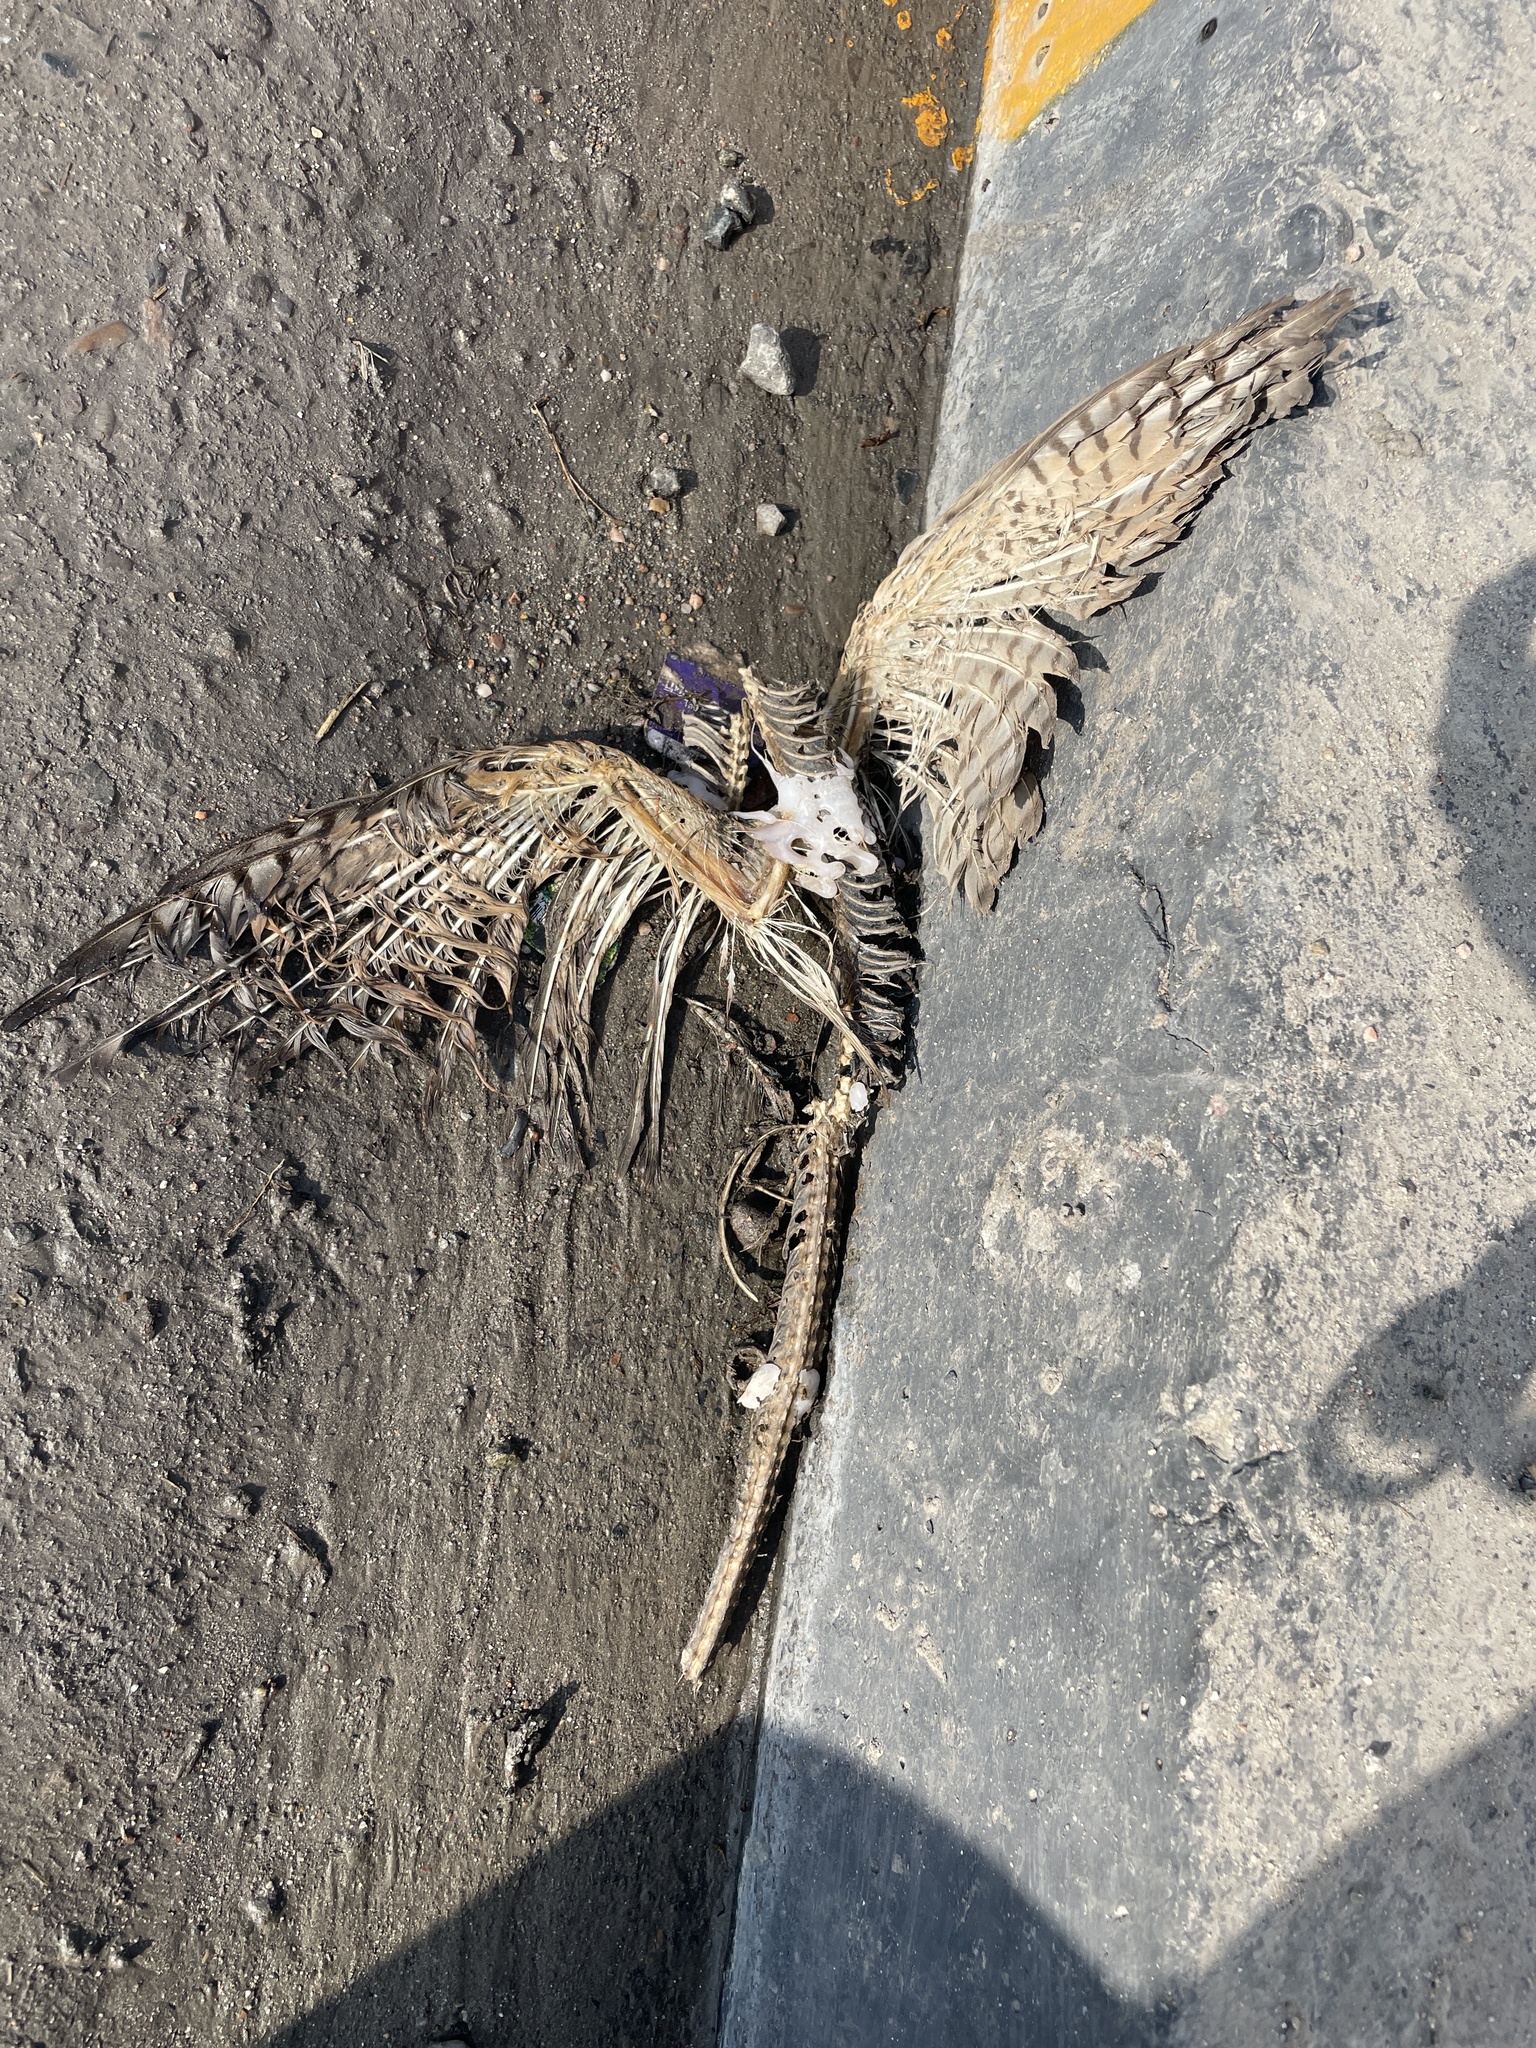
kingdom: Animalia
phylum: Chordata
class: Aves
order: Accipitriformes
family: Accipitridae
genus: Accipiter
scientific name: Accipiter badius
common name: Shikra
